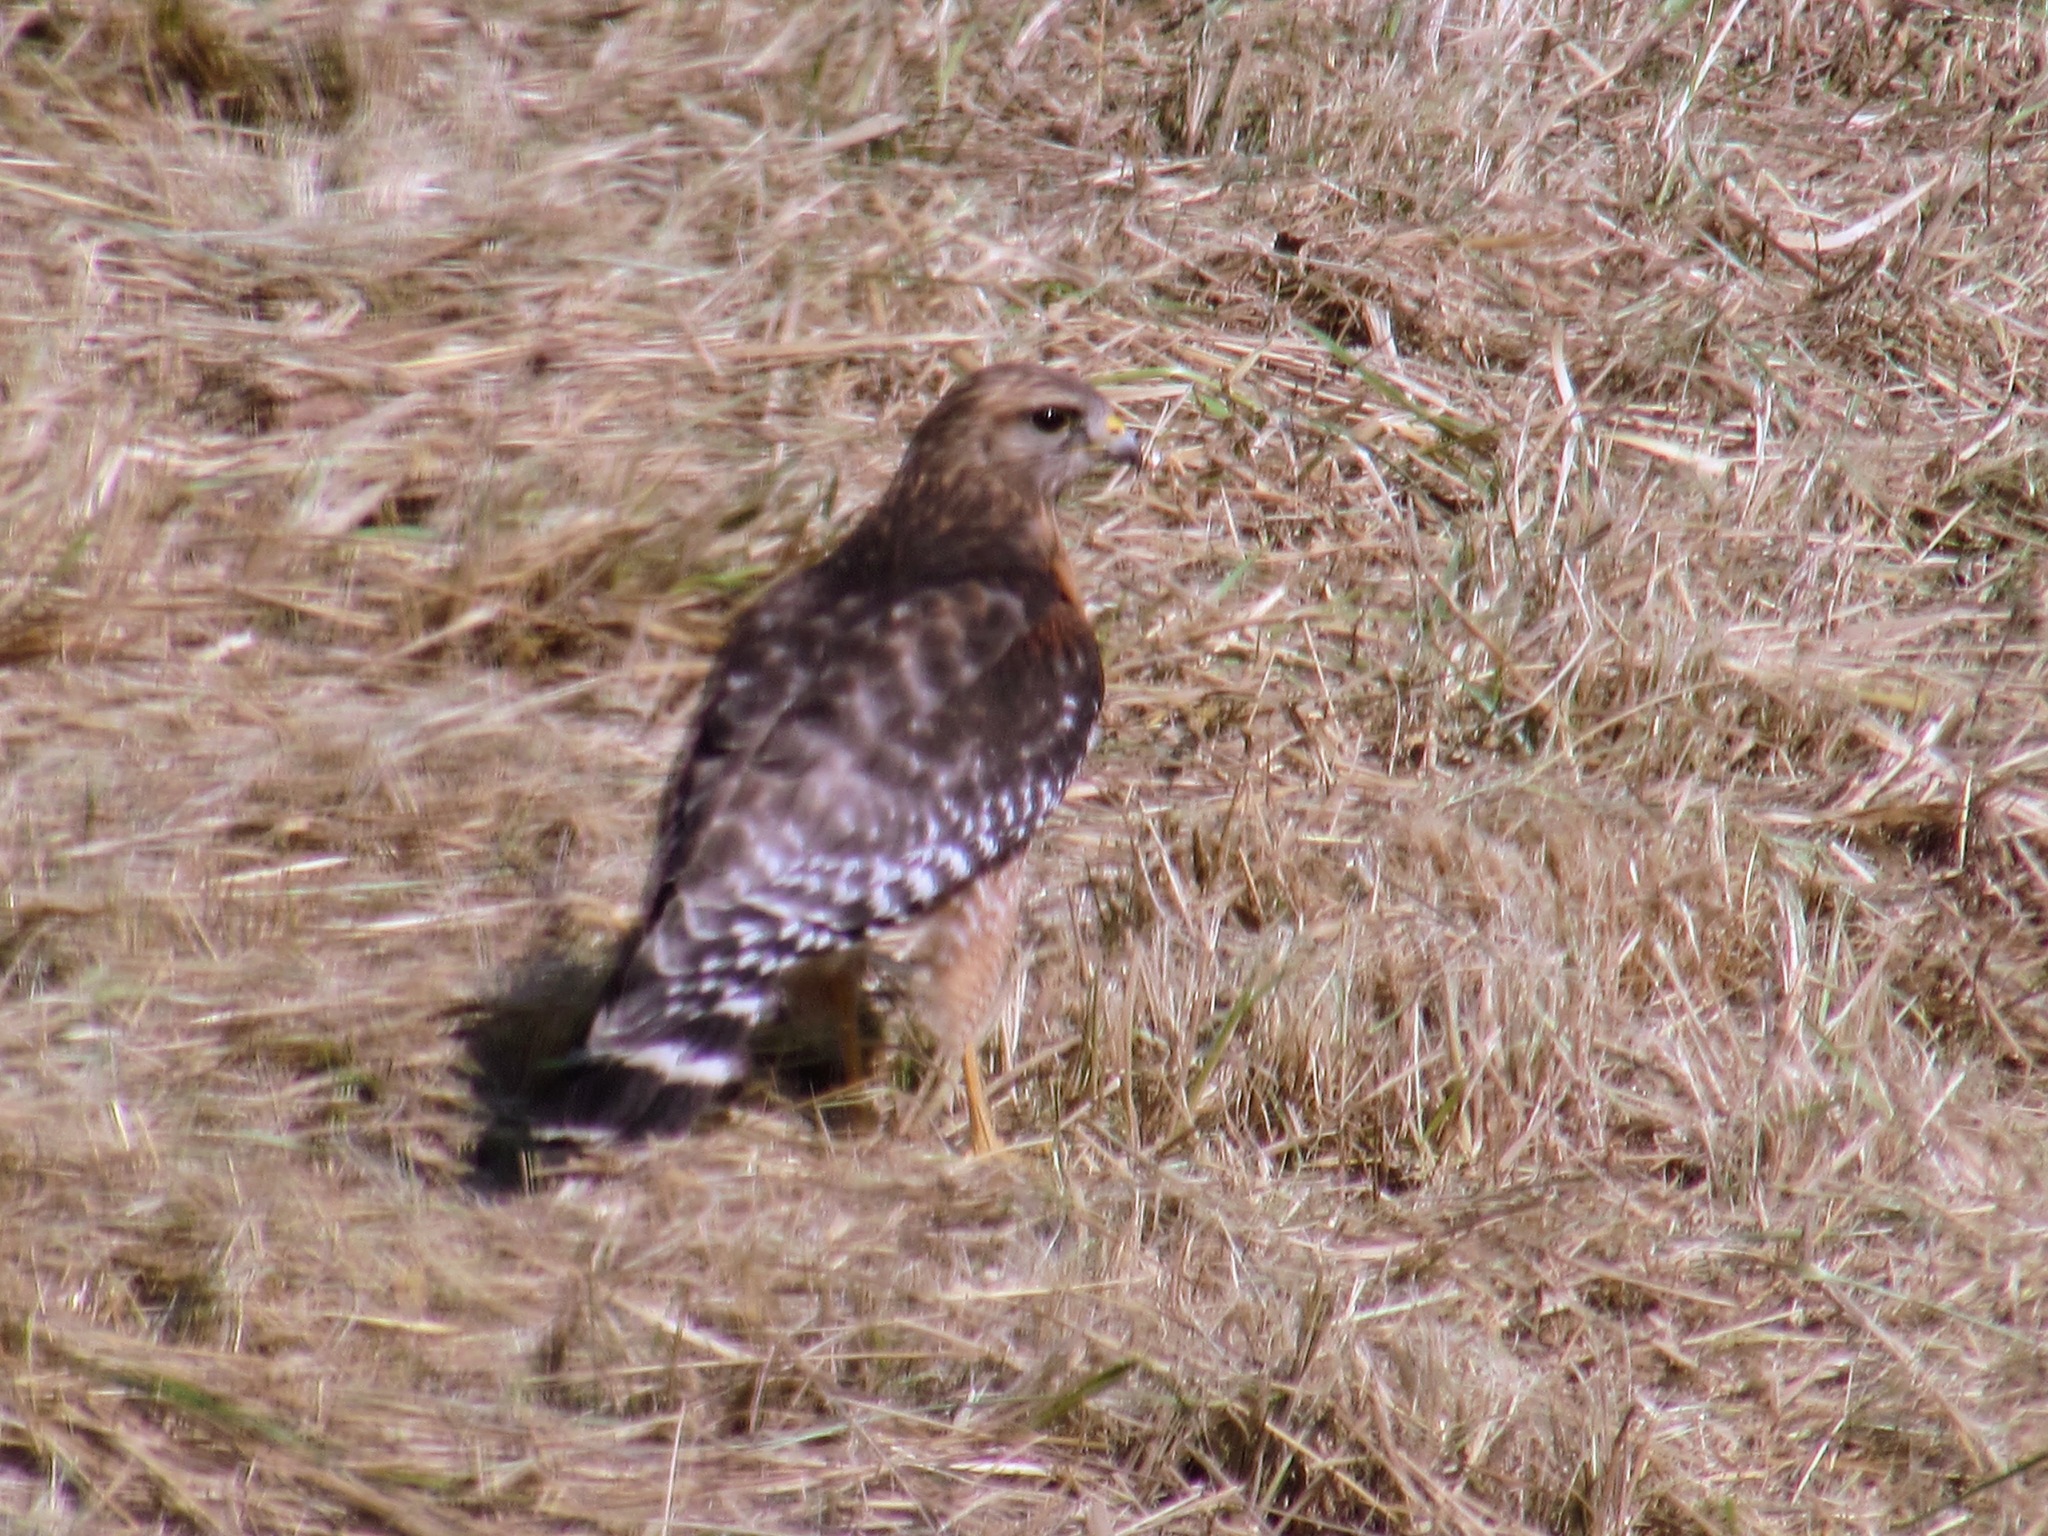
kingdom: Animalia
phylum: Chordata
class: Aves
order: Accipitriformes
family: Accipitridae
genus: Buteo
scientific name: Buteo lineatus
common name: Red-shouldered hawk
